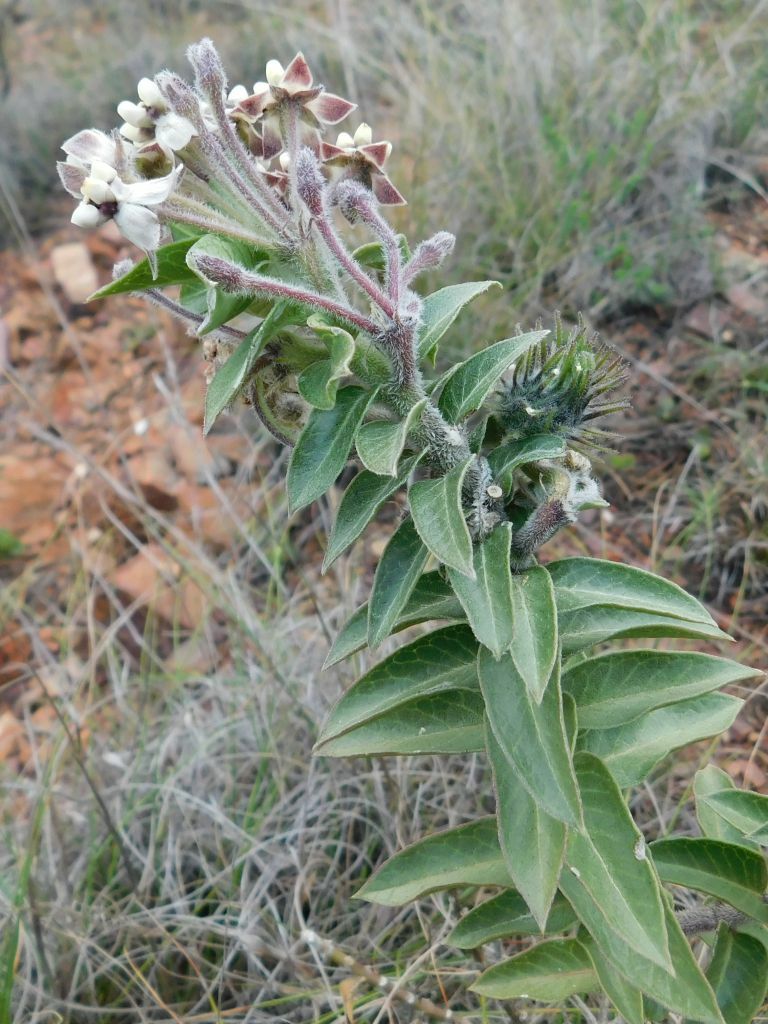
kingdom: Plantae
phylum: Tracheophyta
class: Magnoliopsida
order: Gentianales
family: Apocynaceae
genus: Gomphocarpus
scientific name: Gomphocarpus cancellatus
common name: Wild cotton
